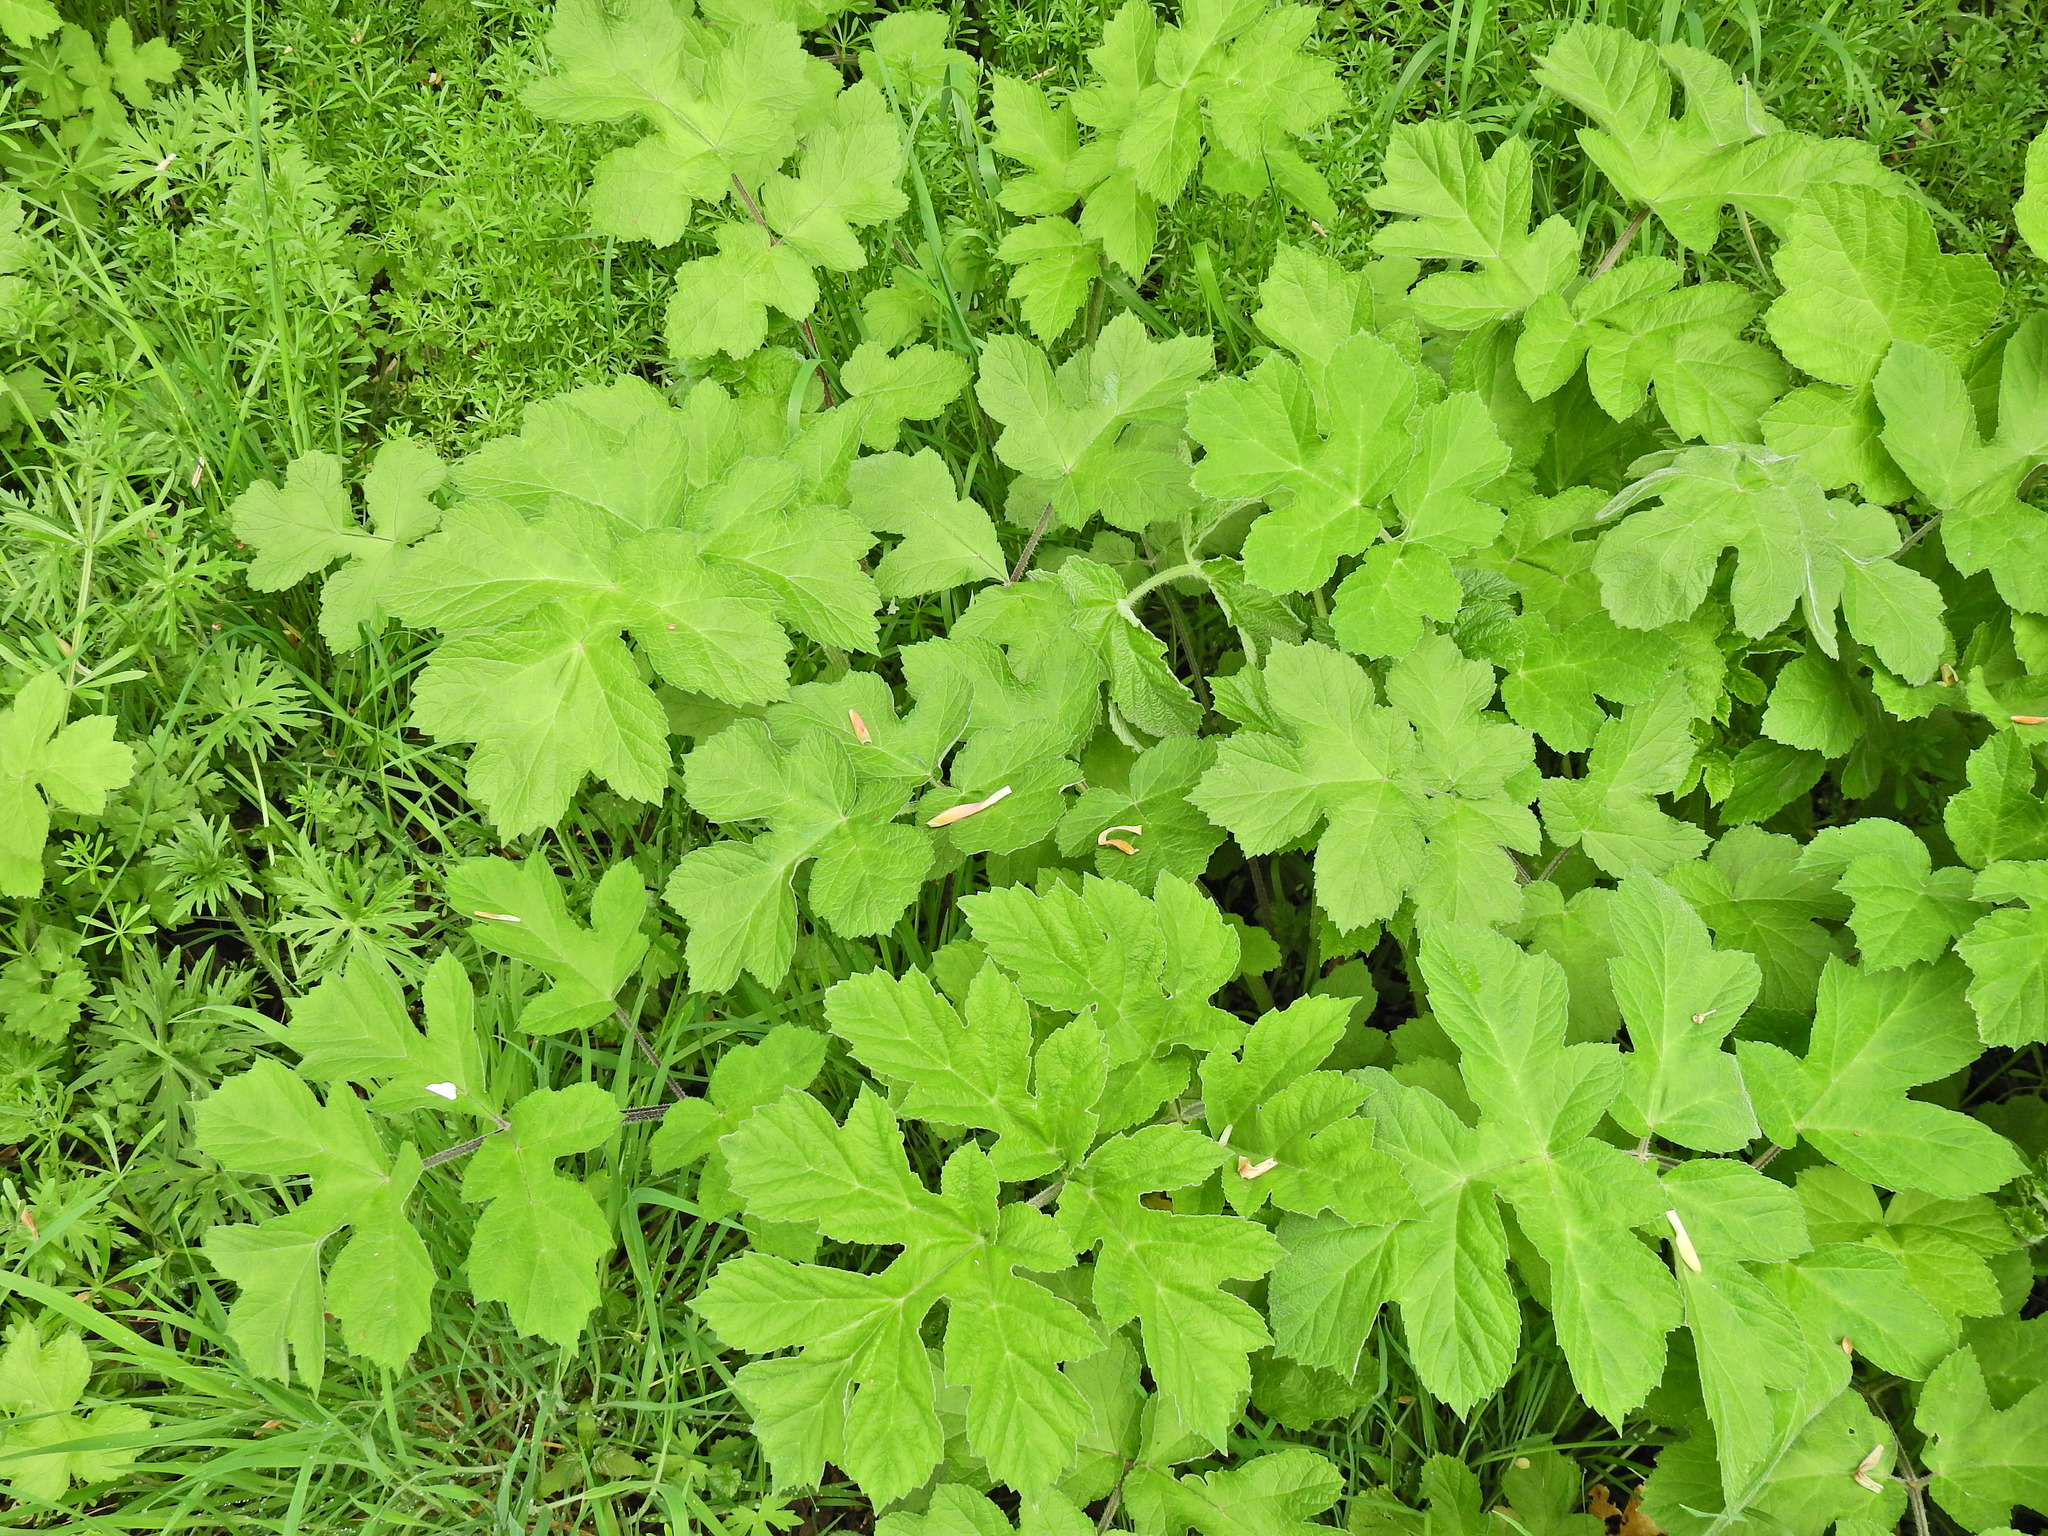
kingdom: Plantae
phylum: Tracheophyta
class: Magnoliopsida
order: Apiales
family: Apiaceae
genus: Heracleum
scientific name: Heracleum sphondylium
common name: Hogweed
